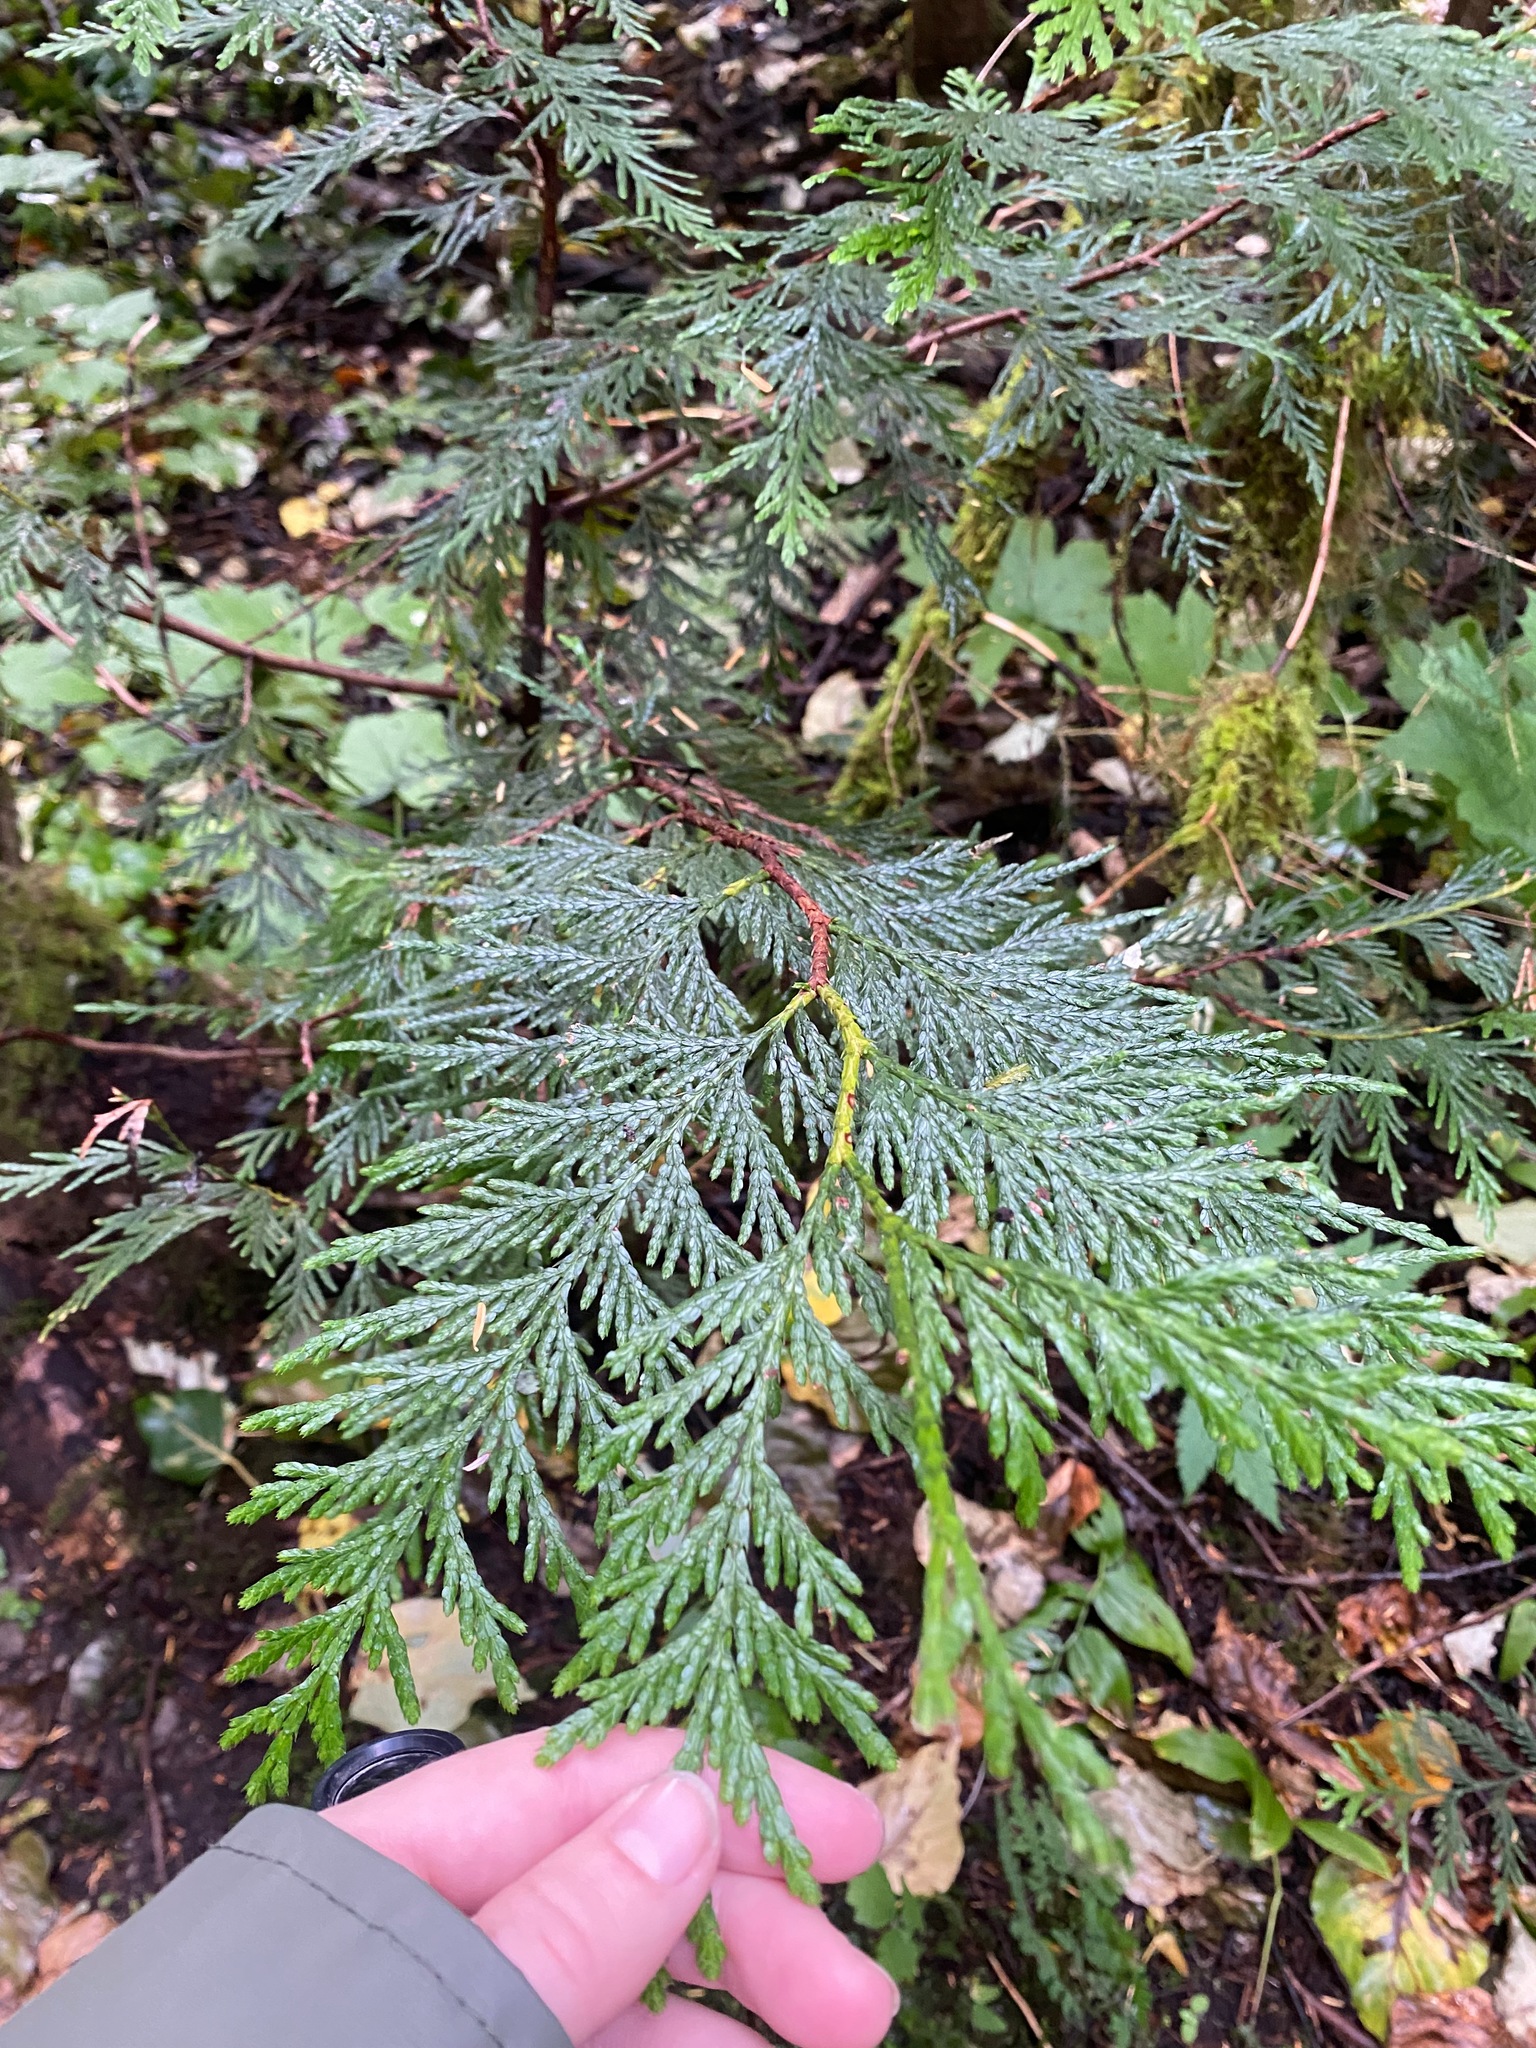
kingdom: Plantae
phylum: Tracheophyta
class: Pinopsida
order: Pinales
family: Cupressaceae
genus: Thuja
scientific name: Thuja plicata
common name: Western red-cedar
